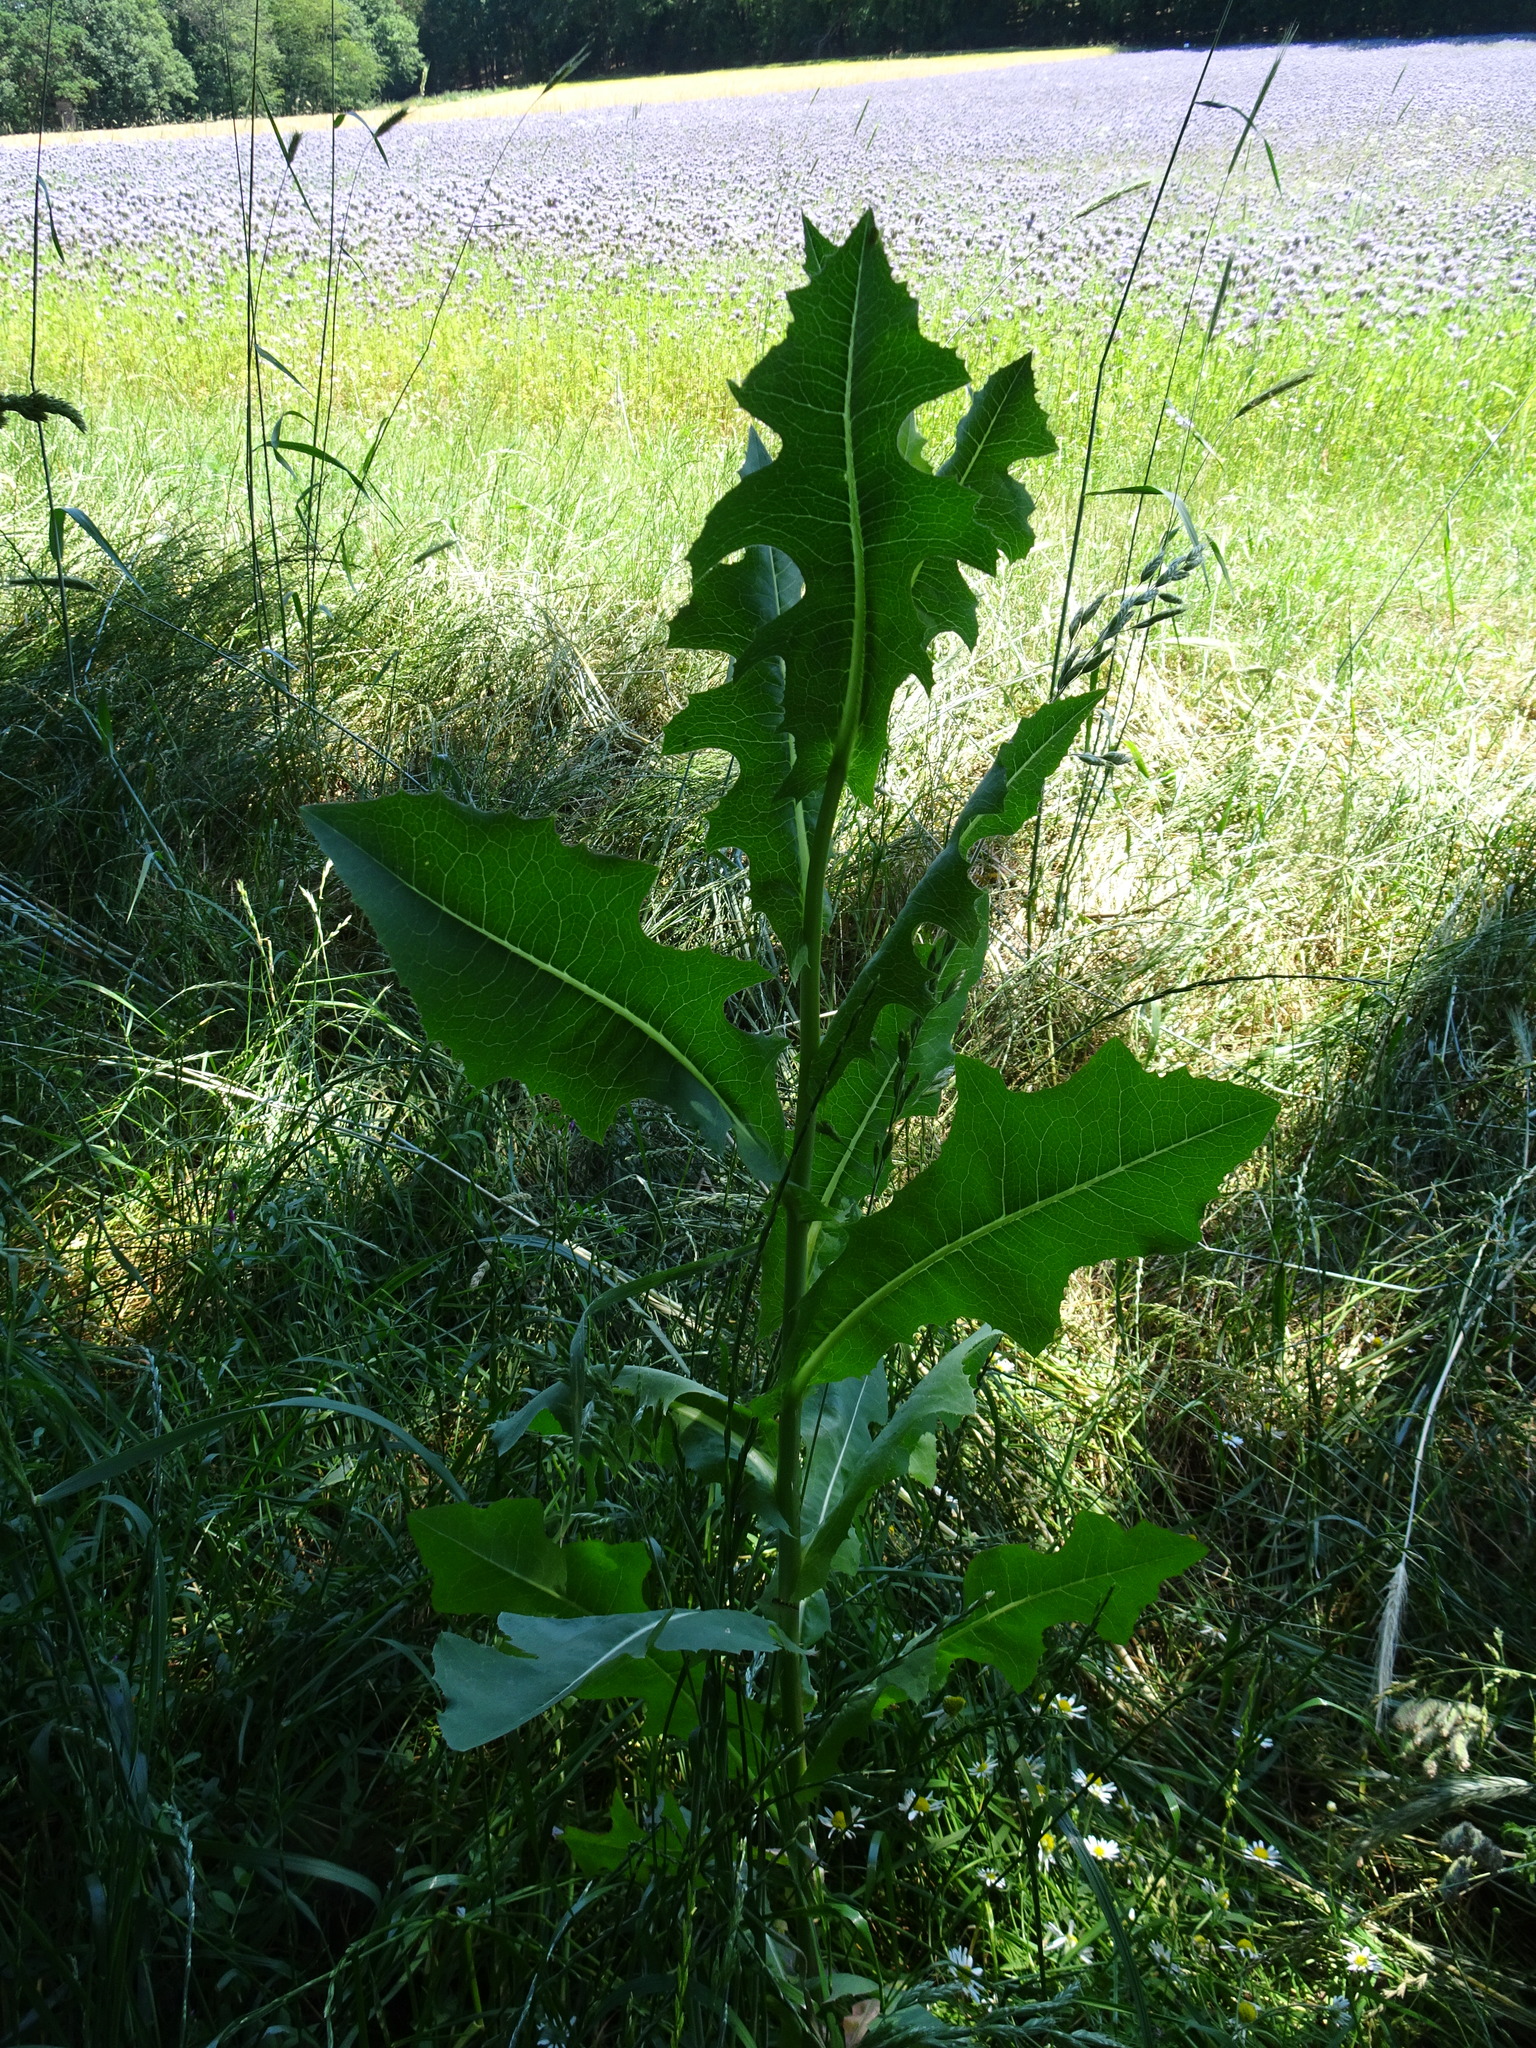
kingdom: Plantae
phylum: Tracheophyta
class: Magnoliopsida
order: Asterales
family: Asteraceae
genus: Lactuca
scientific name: Lactuca serriola
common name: Prickly lettuce
